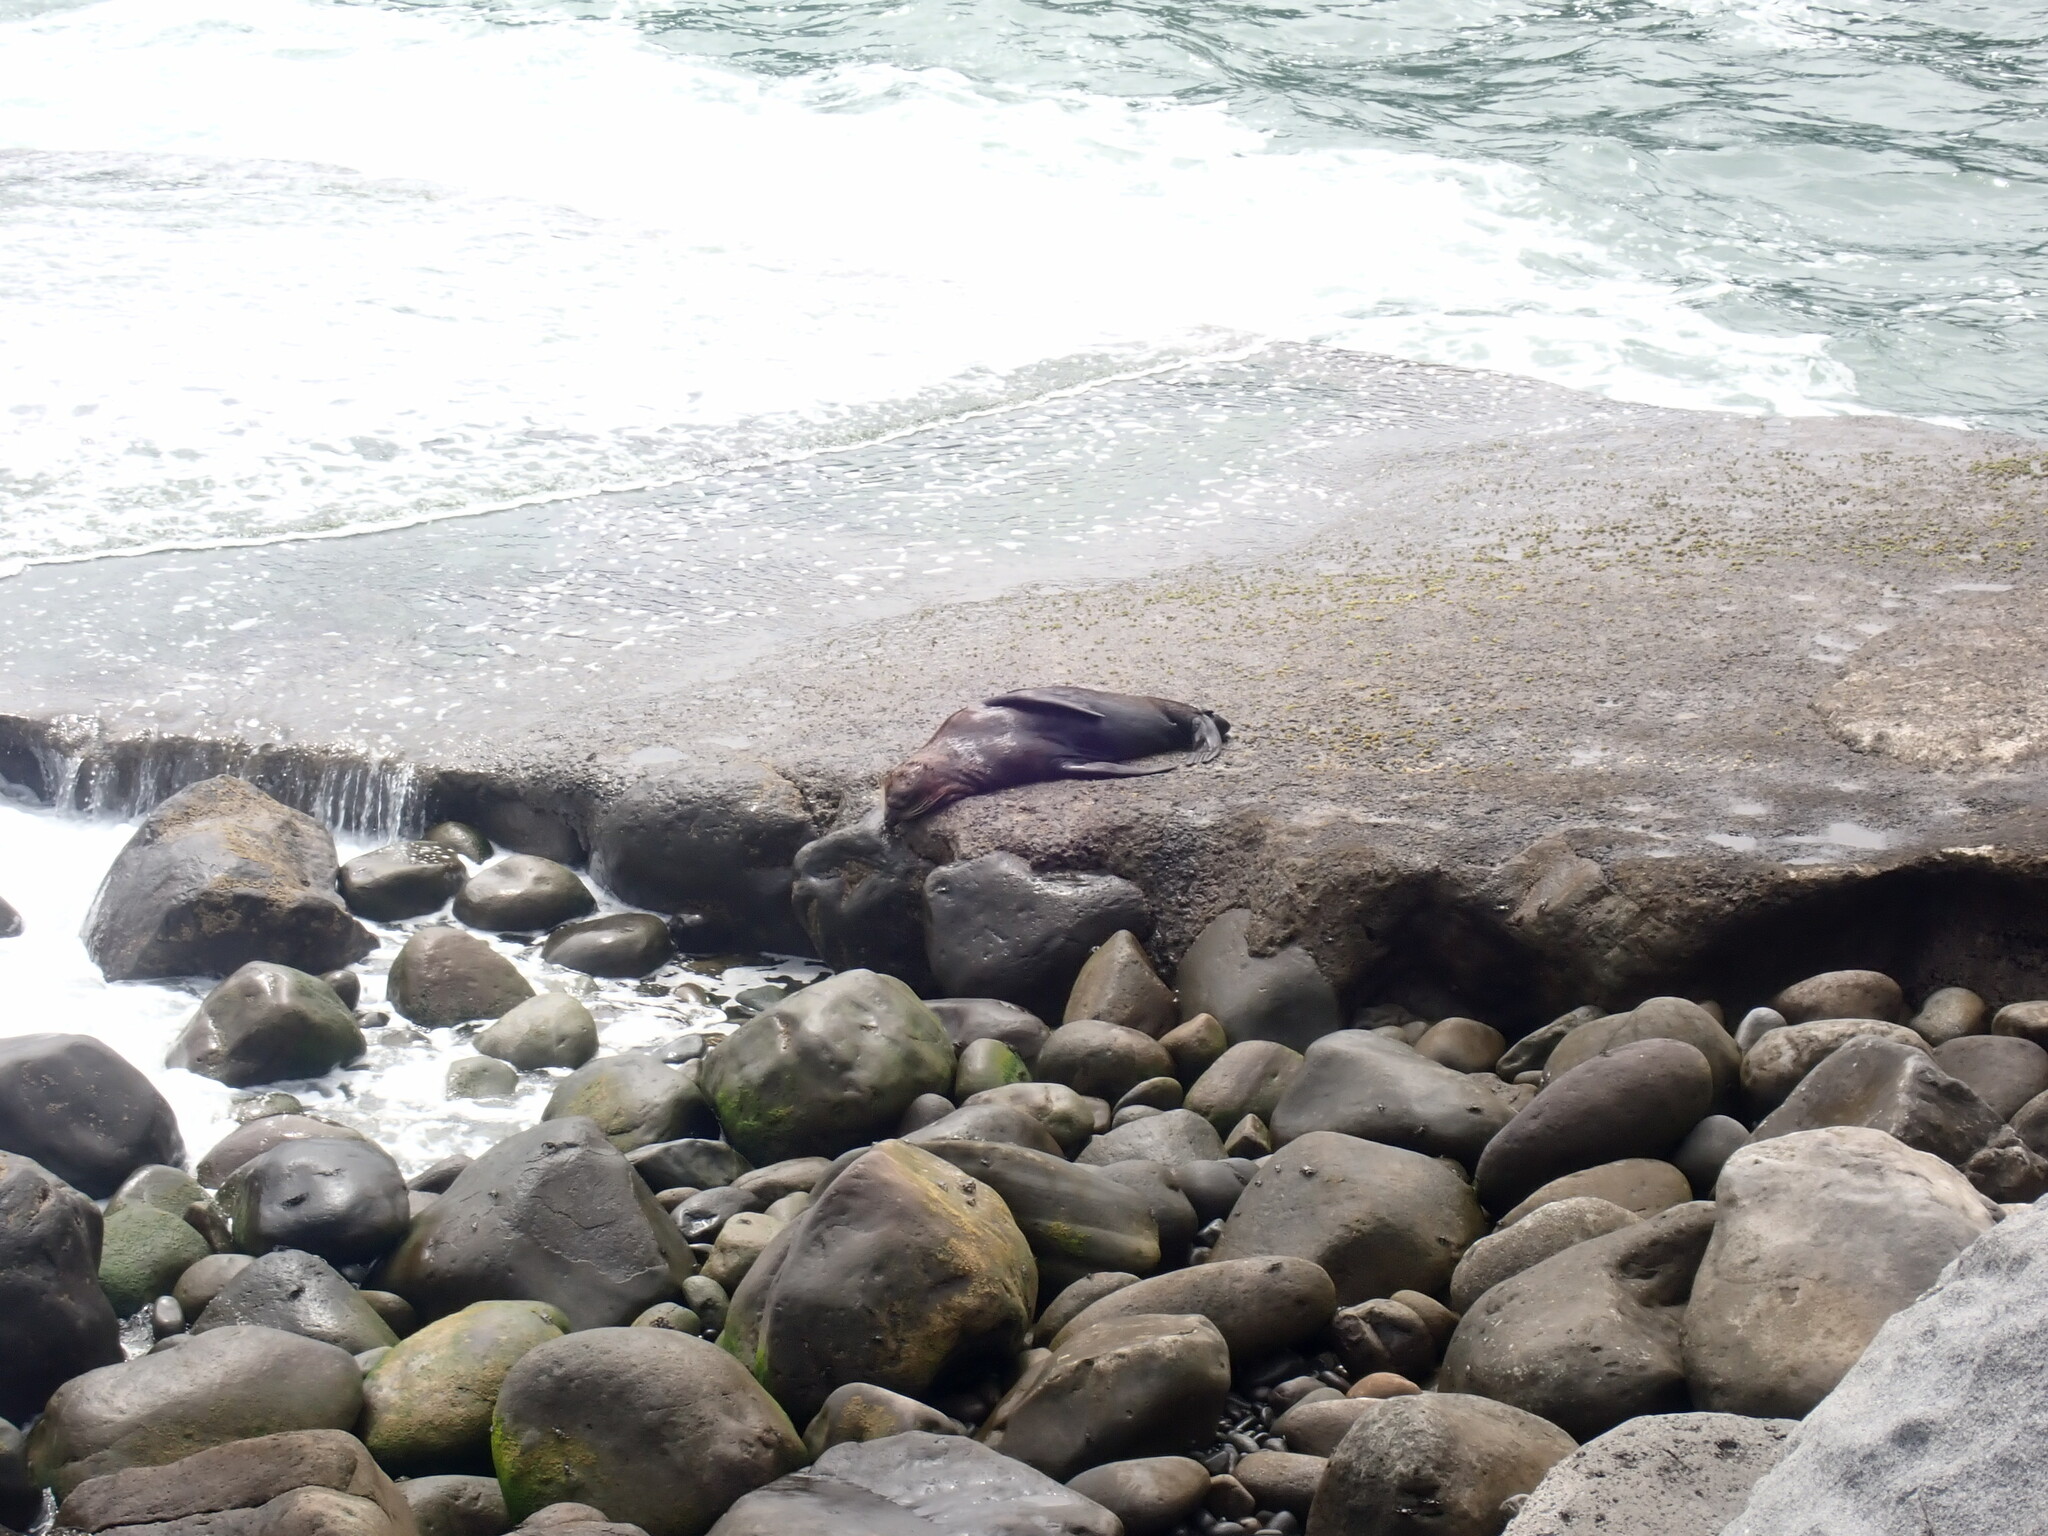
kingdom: Animalia
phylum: Chordata
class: Mammalia
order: Carnivora
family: Otariidae
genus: Arctocephalus
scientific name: Arctocephalus forsteri
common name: New zealand fur seal
